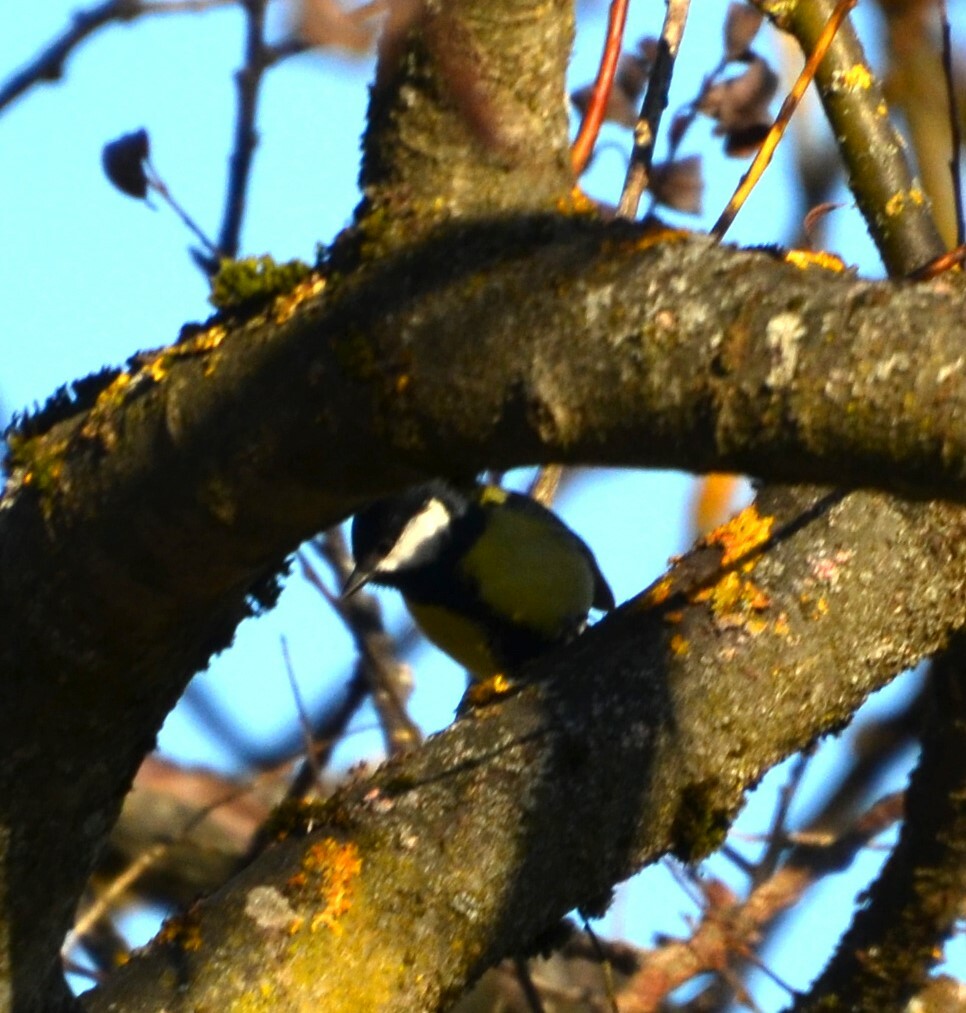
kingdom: Animalia
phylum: Chordata
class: Aves
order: Passeriformes
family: Paridae
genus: Parus
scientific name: Parus major
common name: Great tit
